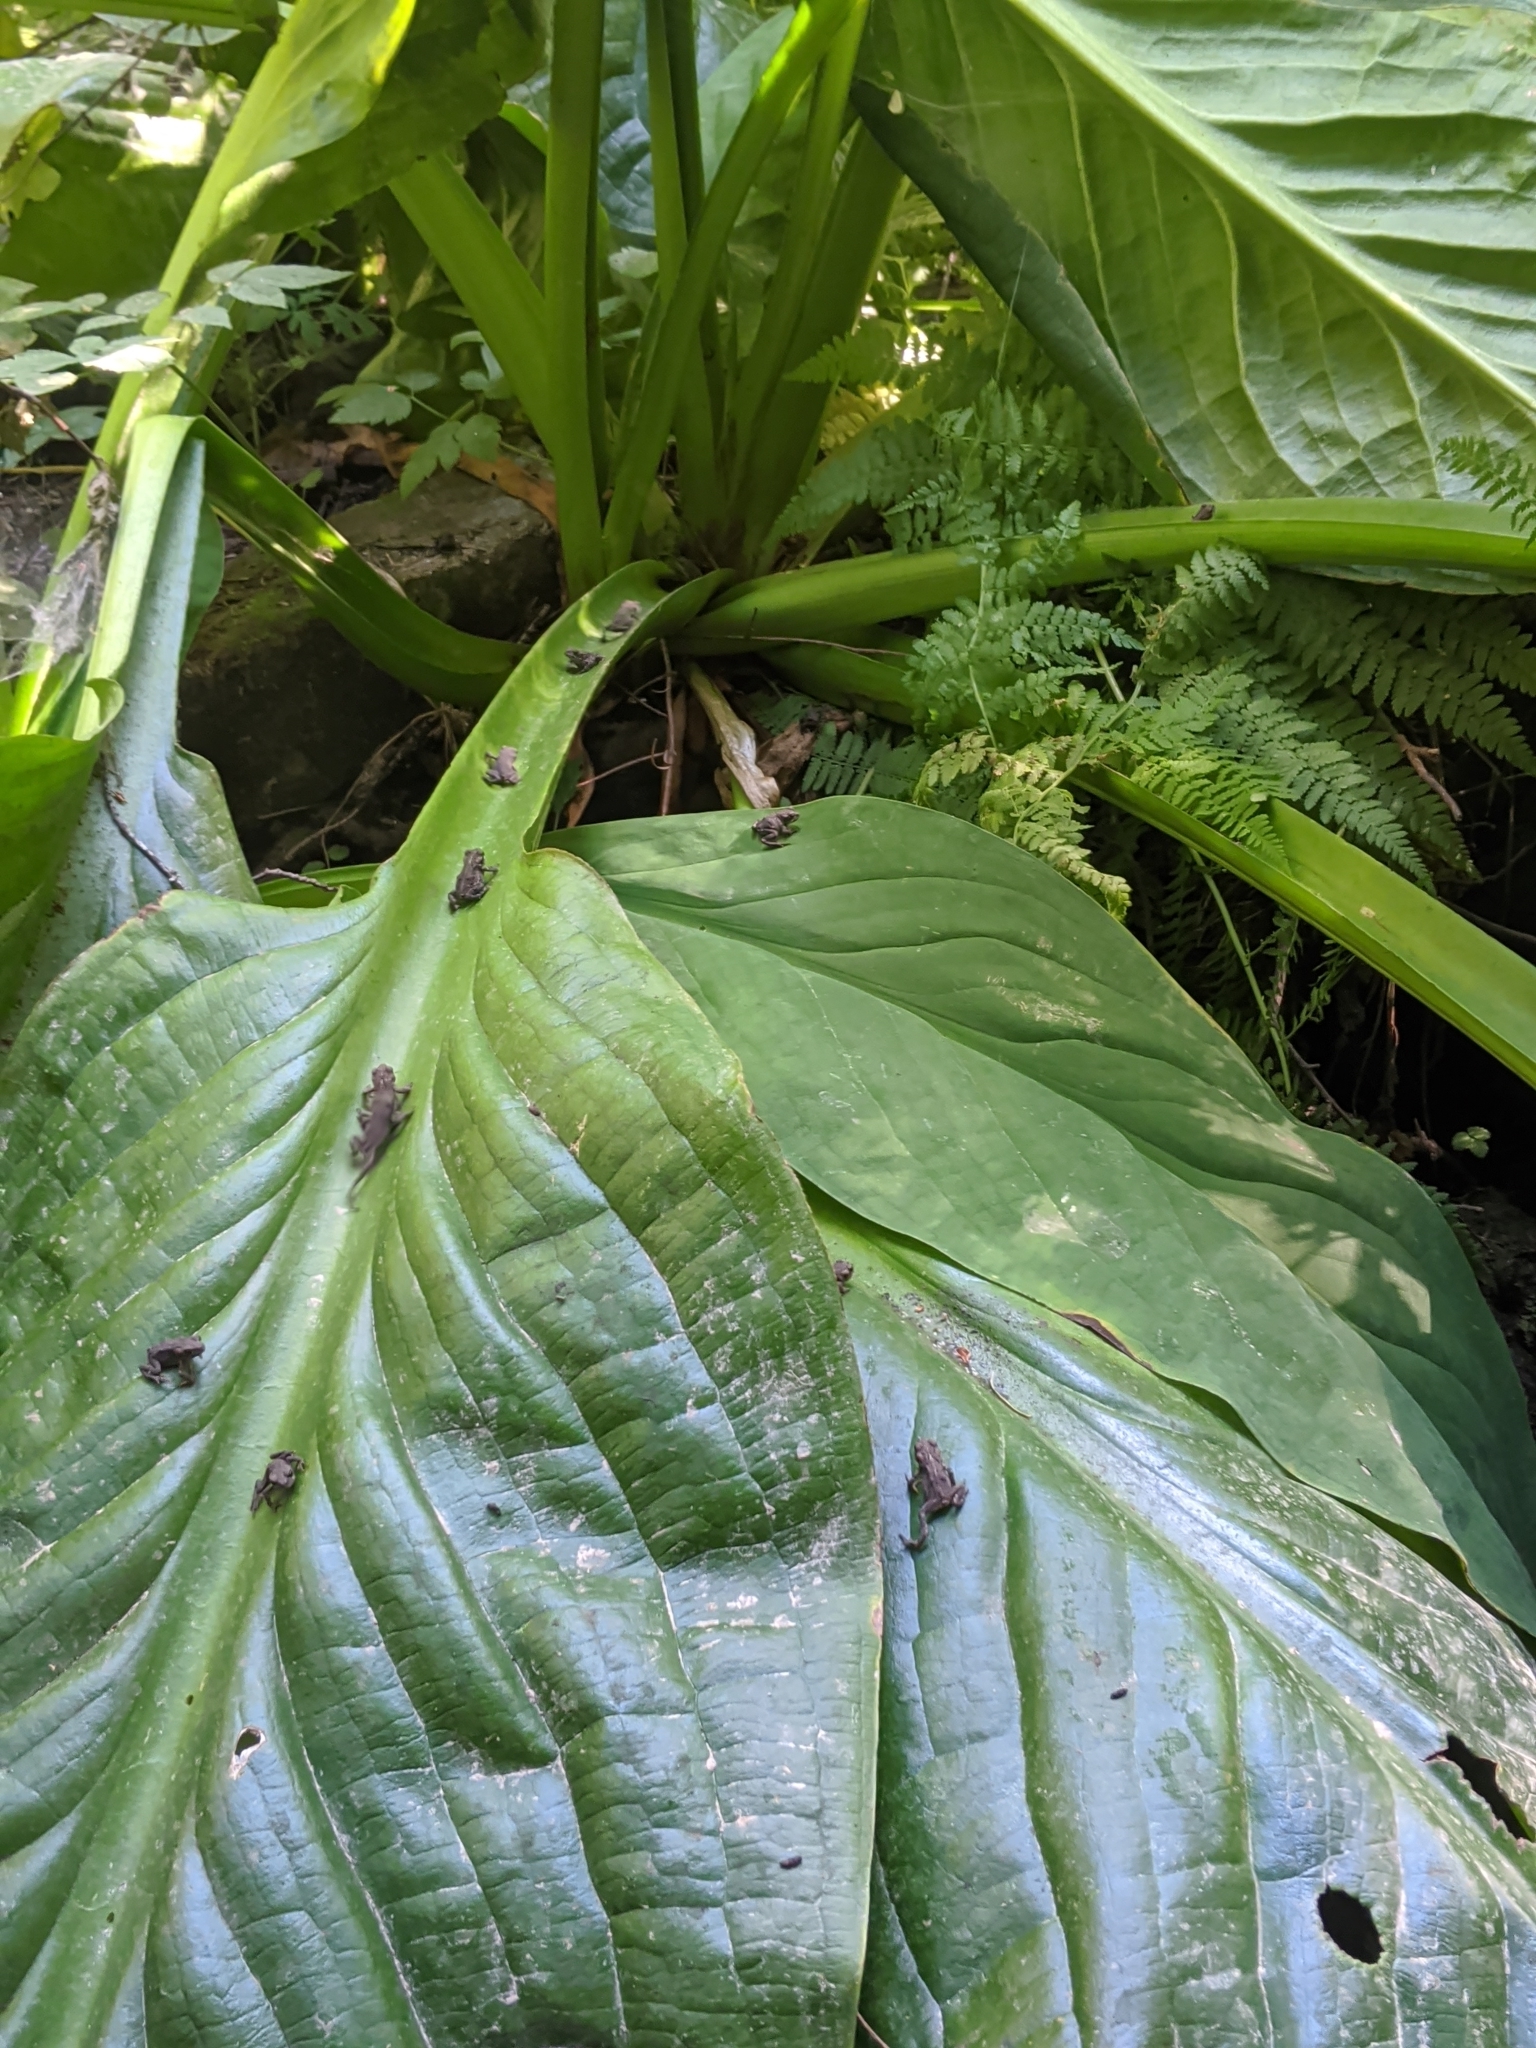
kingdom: Plantae
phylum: Tracheophyta
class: Liliopsida
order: Alismatales
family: Araceae
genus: Lysichiton
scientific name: Lysichiton americanus
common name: American skunk cabbage
